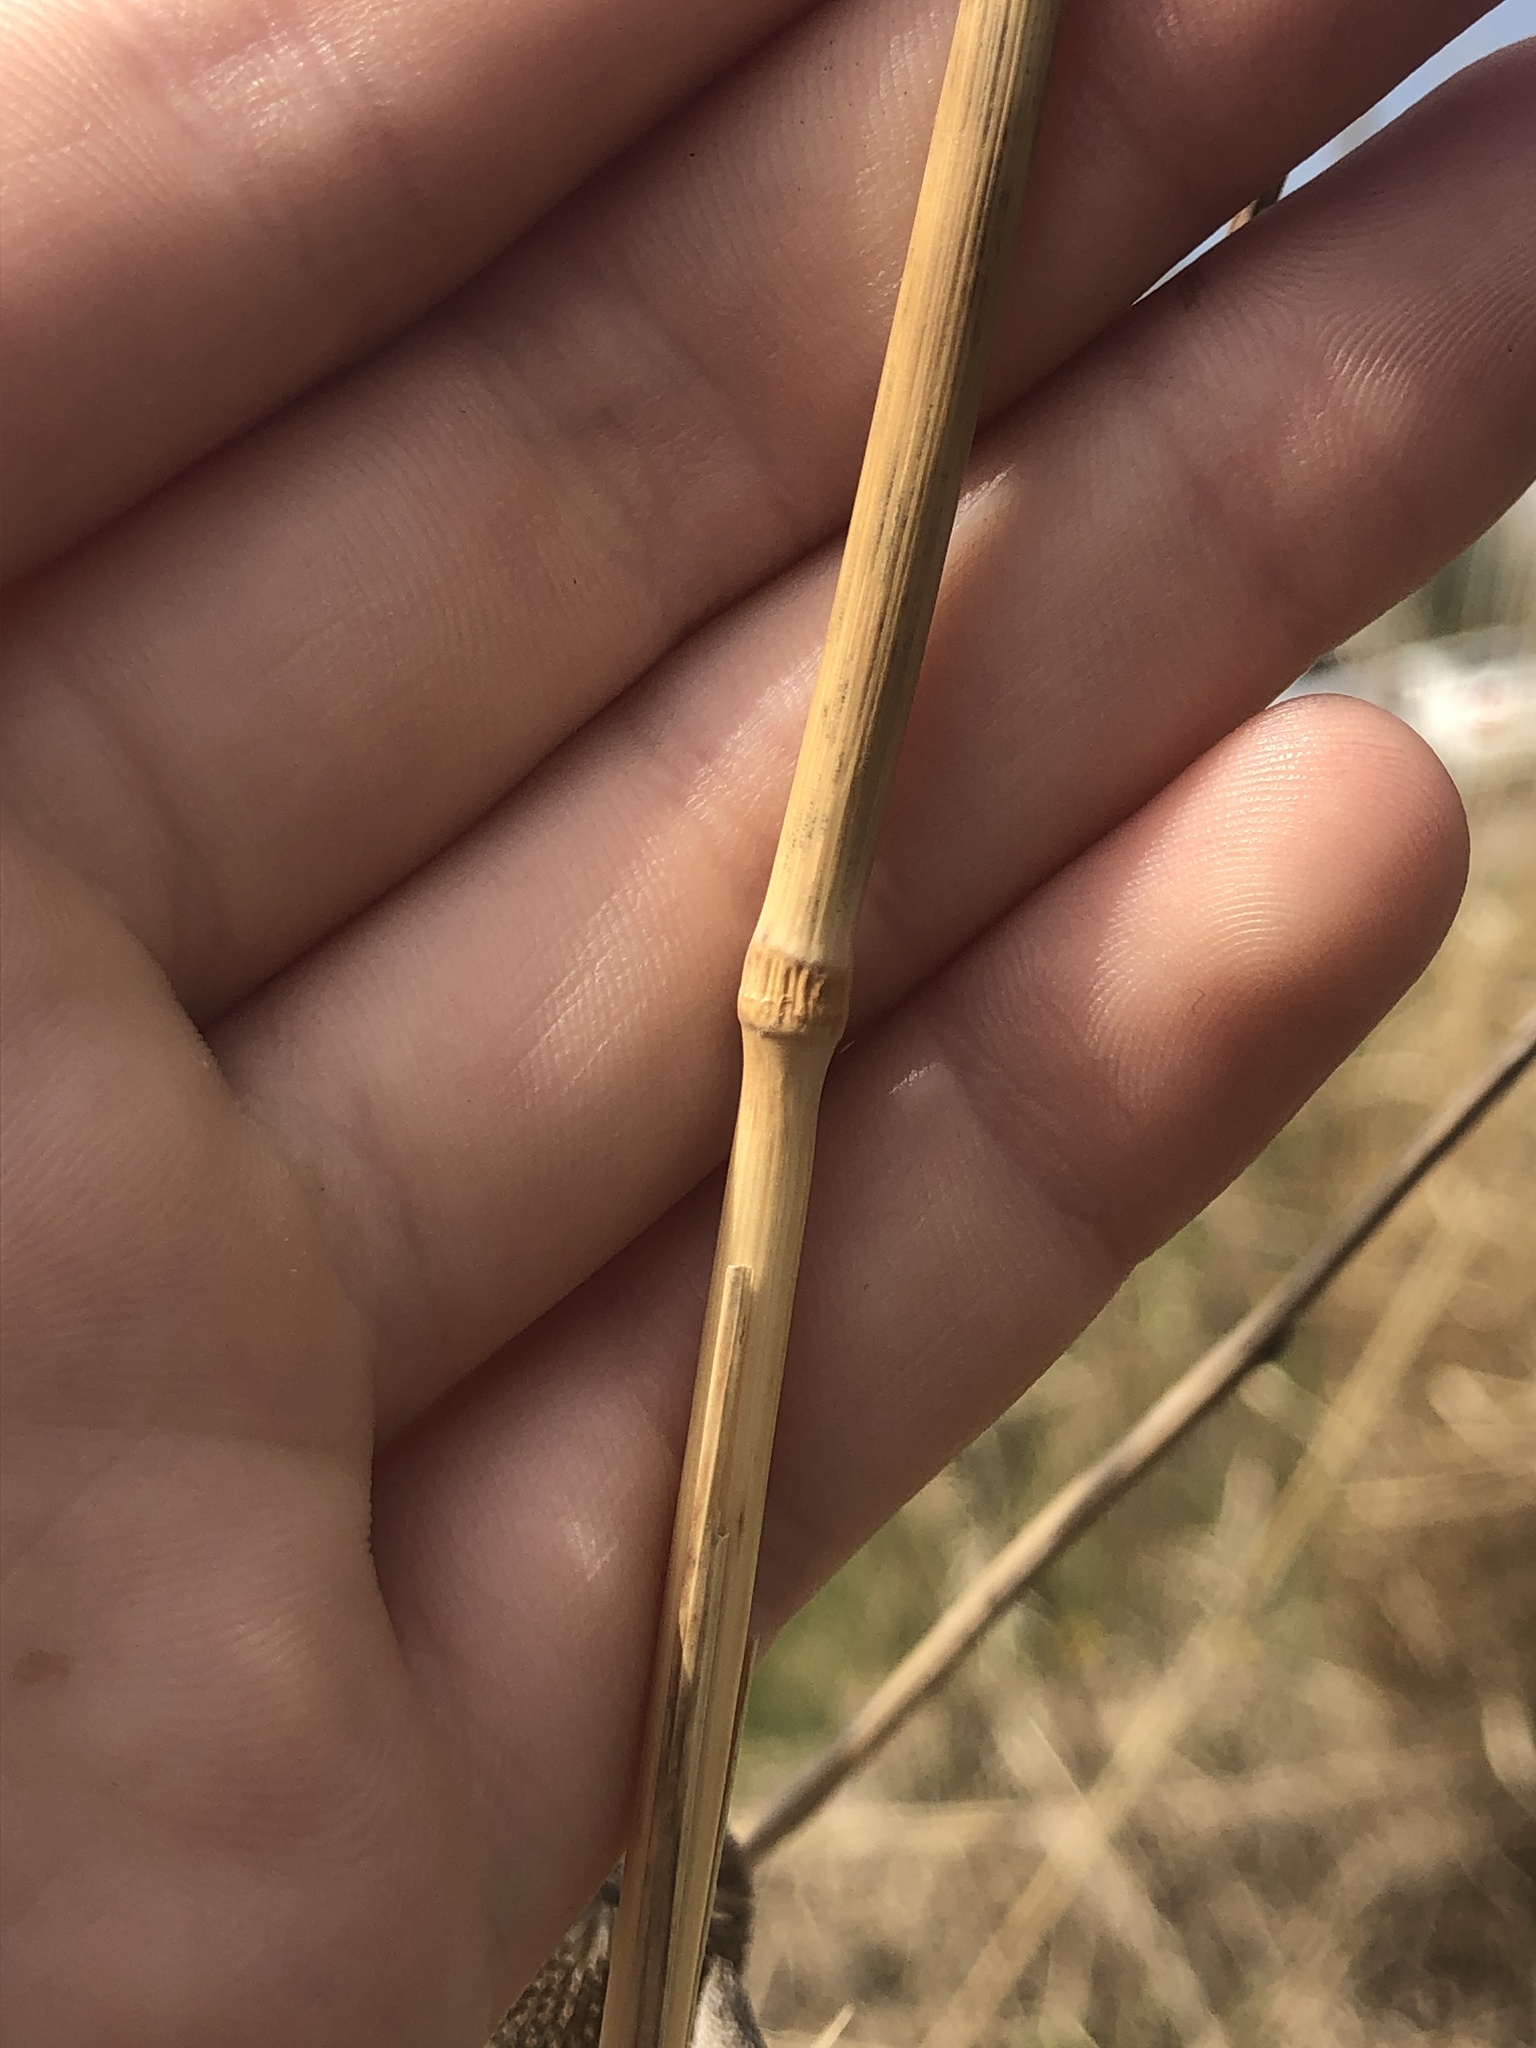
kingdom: Plantae
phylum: Tracheophyta
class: Liliopsida
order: Poales
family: Poaceae
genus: Elymus
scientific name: Elymus canadensis
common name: Canada wild rye
